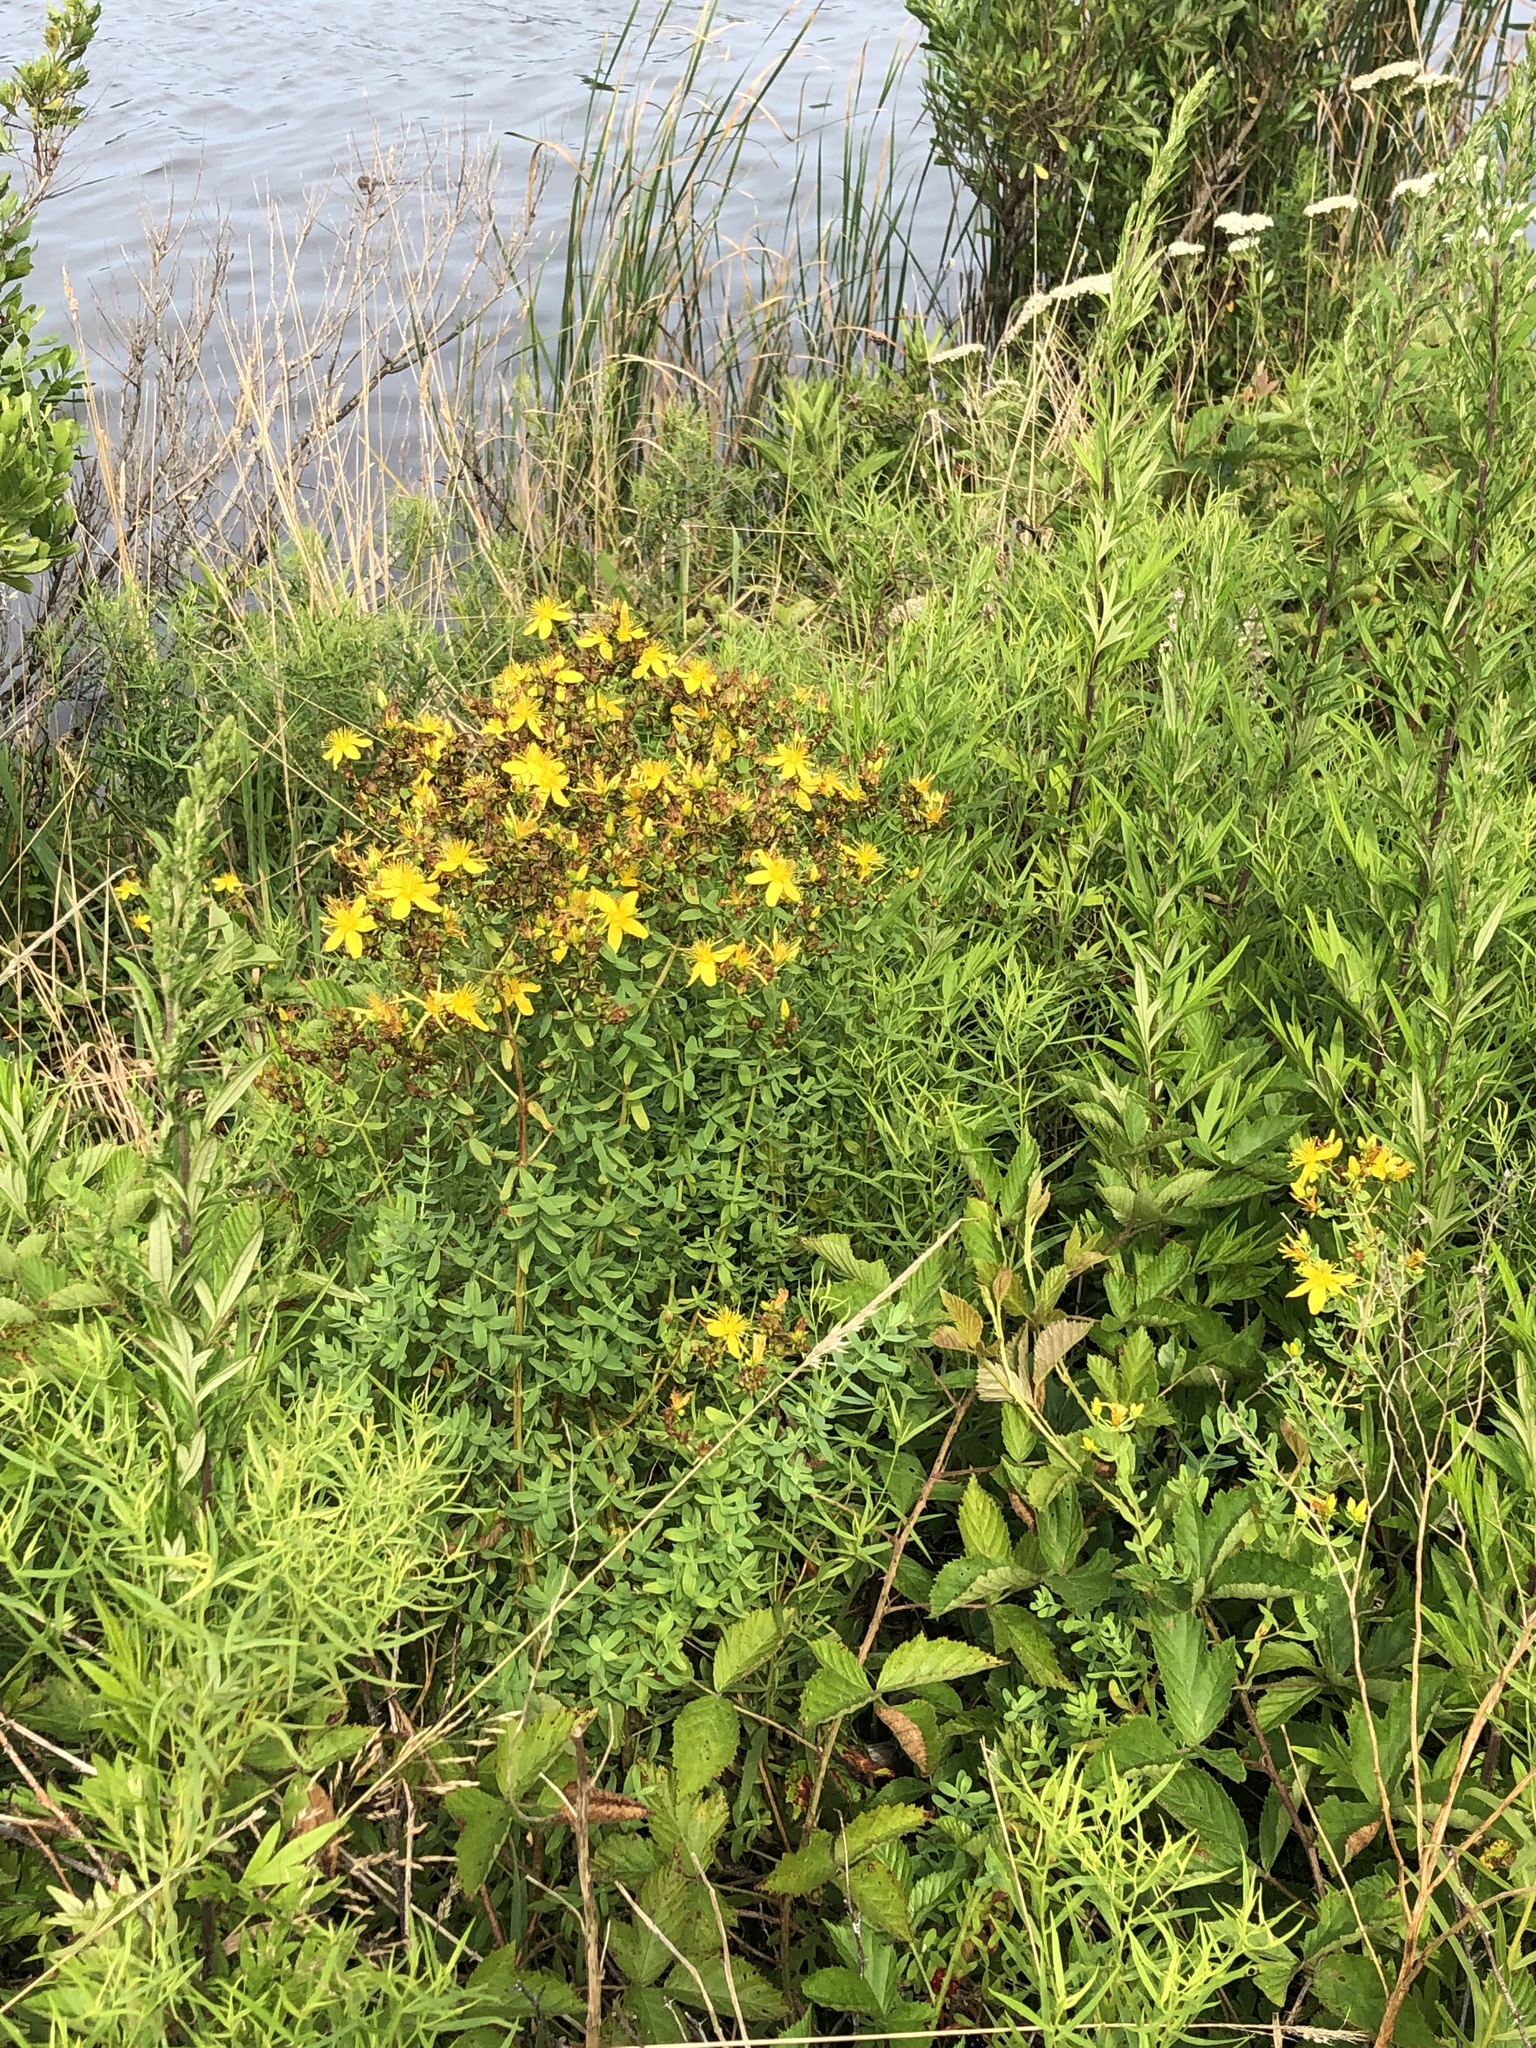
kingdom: Plantae
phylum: Tracheophyta
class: Magnoliopsida
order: Malpighiales
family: Hypericaceae
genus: Hypericum
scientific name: Hypericum perforatum
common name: Common st. johnswort
